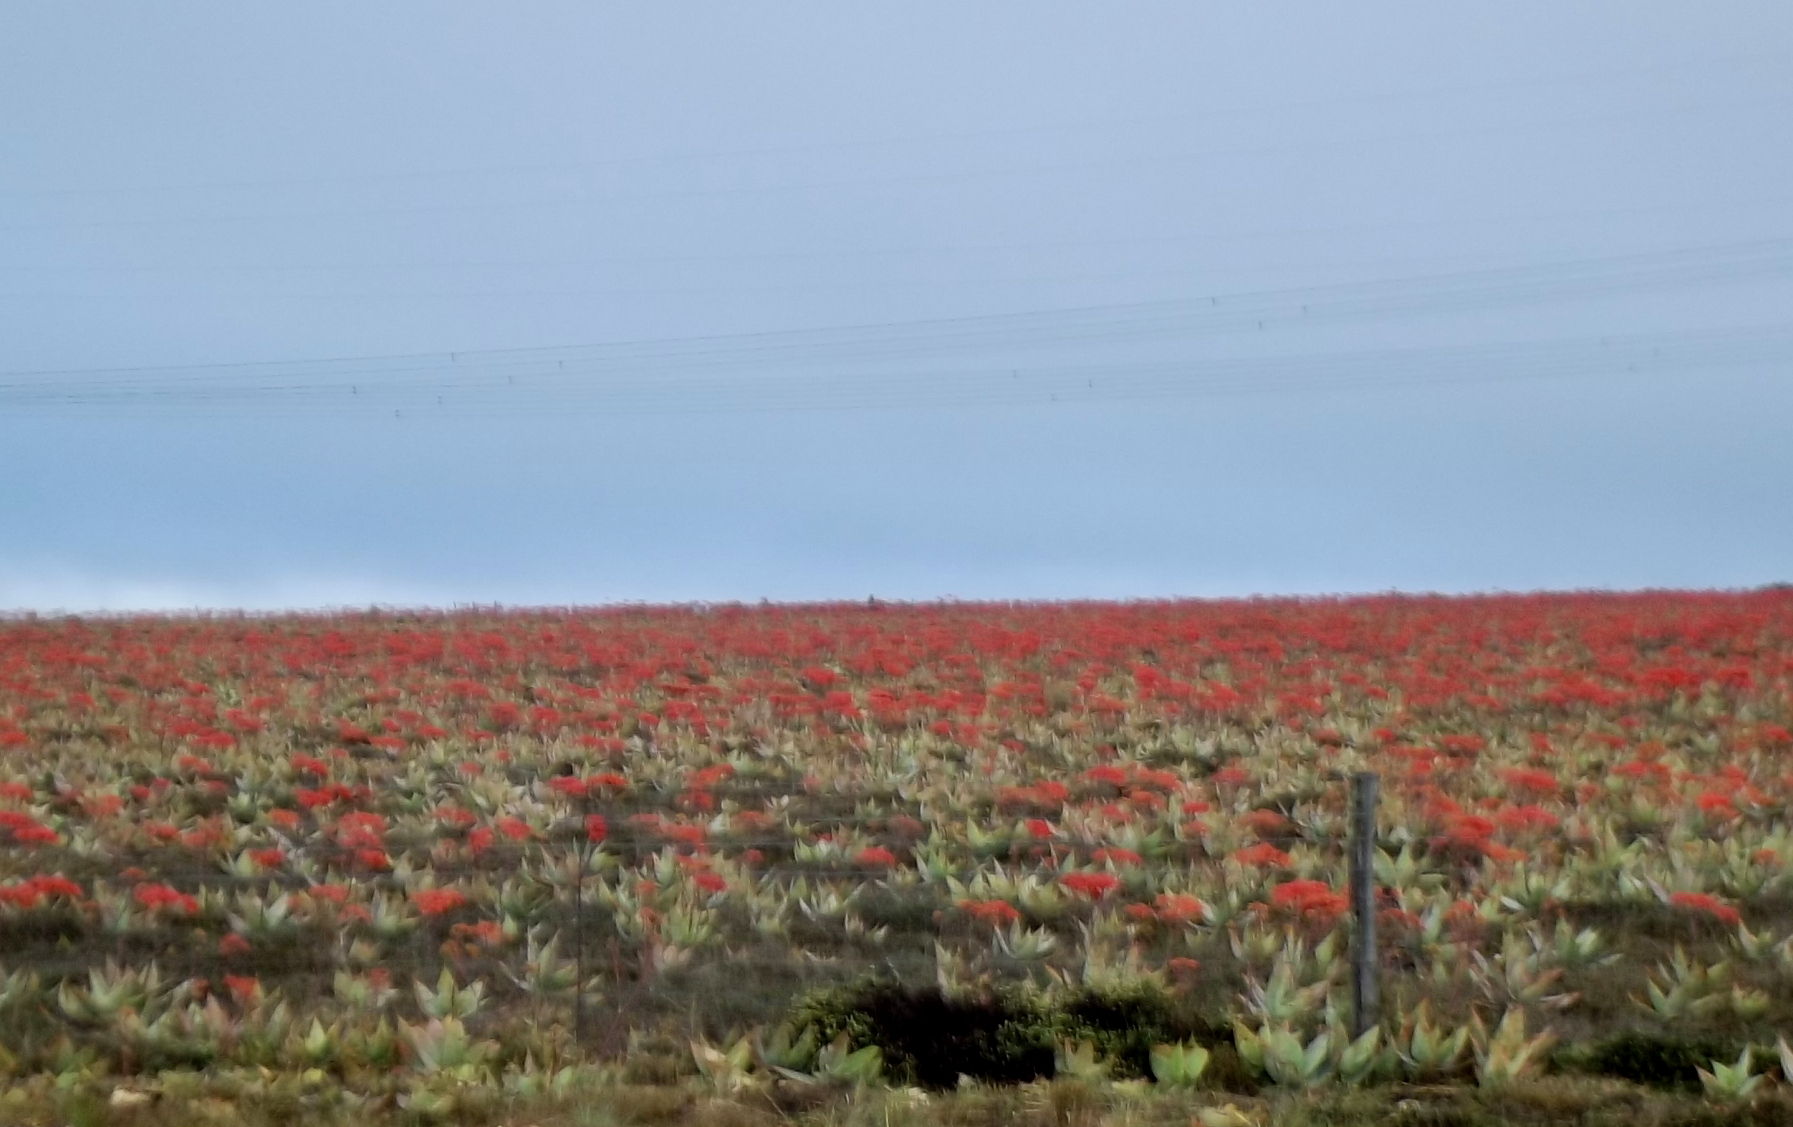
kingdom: Plantae
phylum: Tracheophyta
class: Liliopsida
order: Asparagales
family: Asphodelaceae
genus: Aloe
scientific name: Aloe striata
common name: Coral aloe
